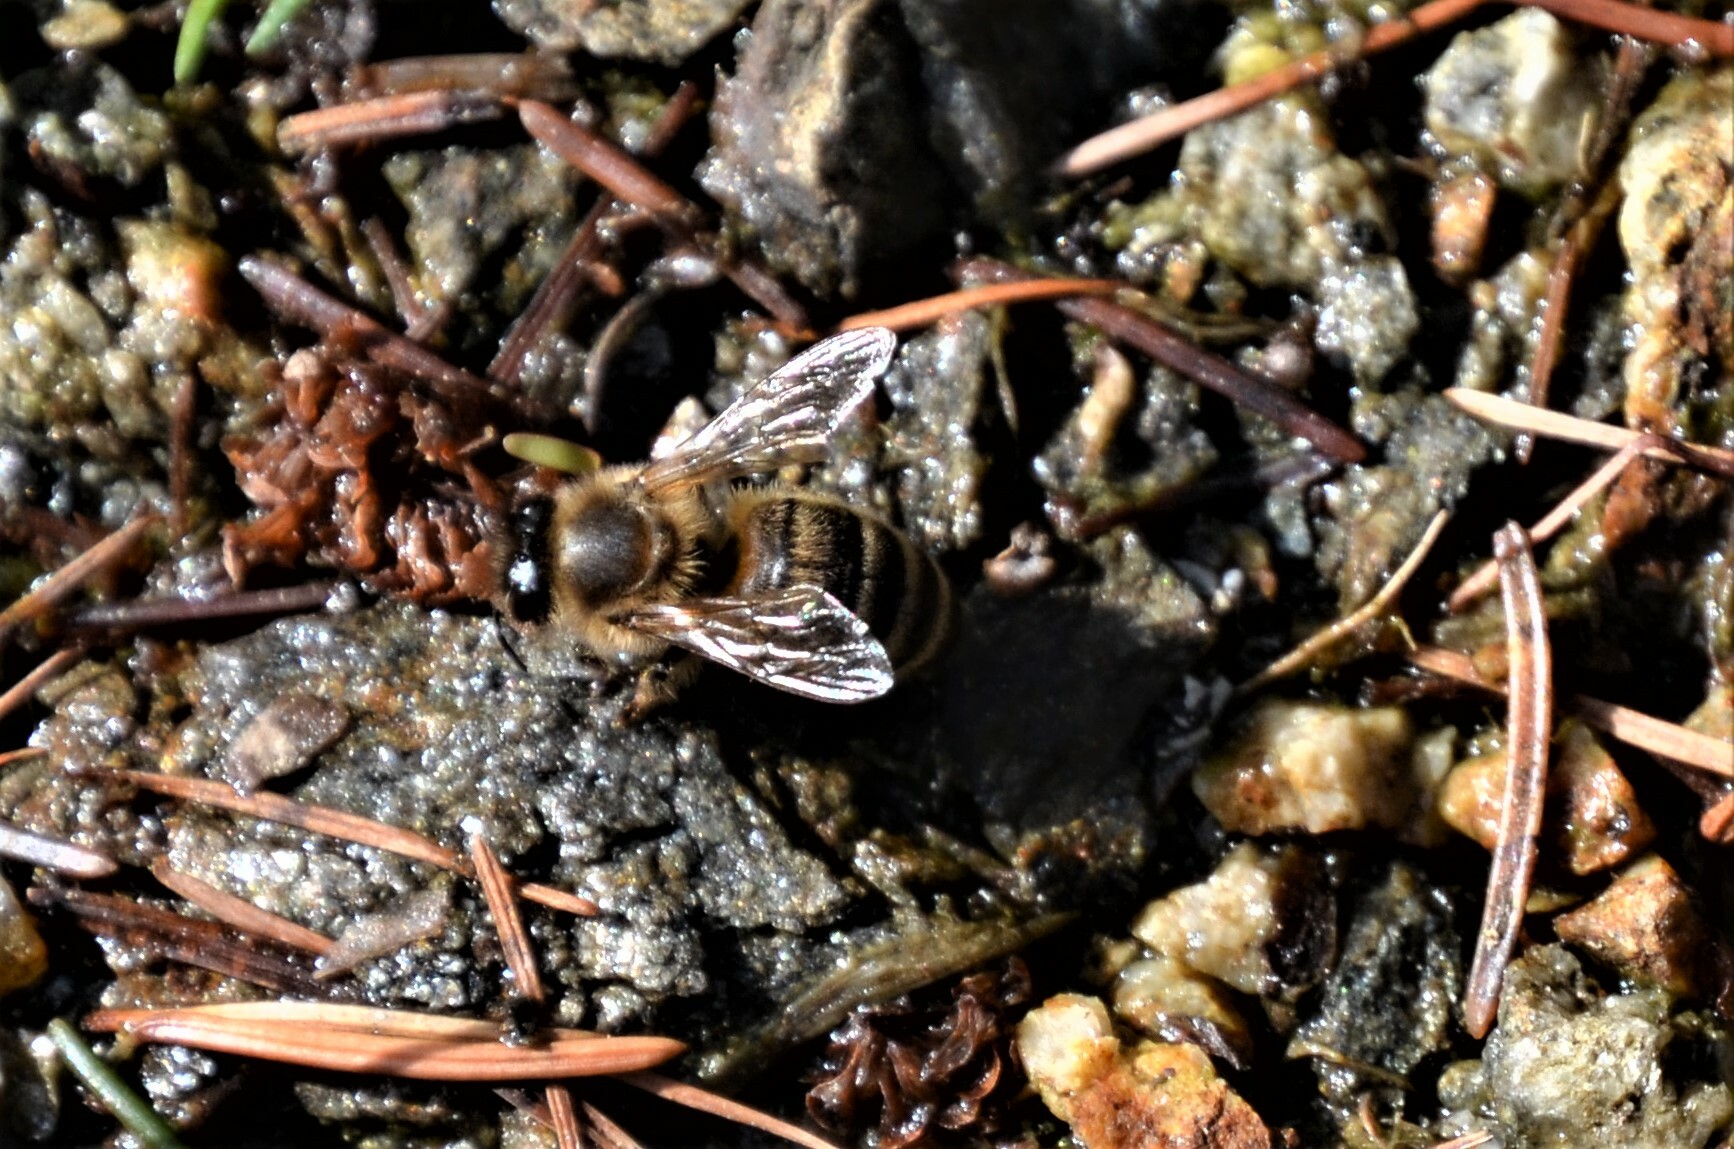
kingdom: Animalia
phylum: Arthropoda
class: Insecta
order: Hymenoptera
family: Apidae
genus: Apis
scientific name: Apis mellifera
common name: Honey bee
